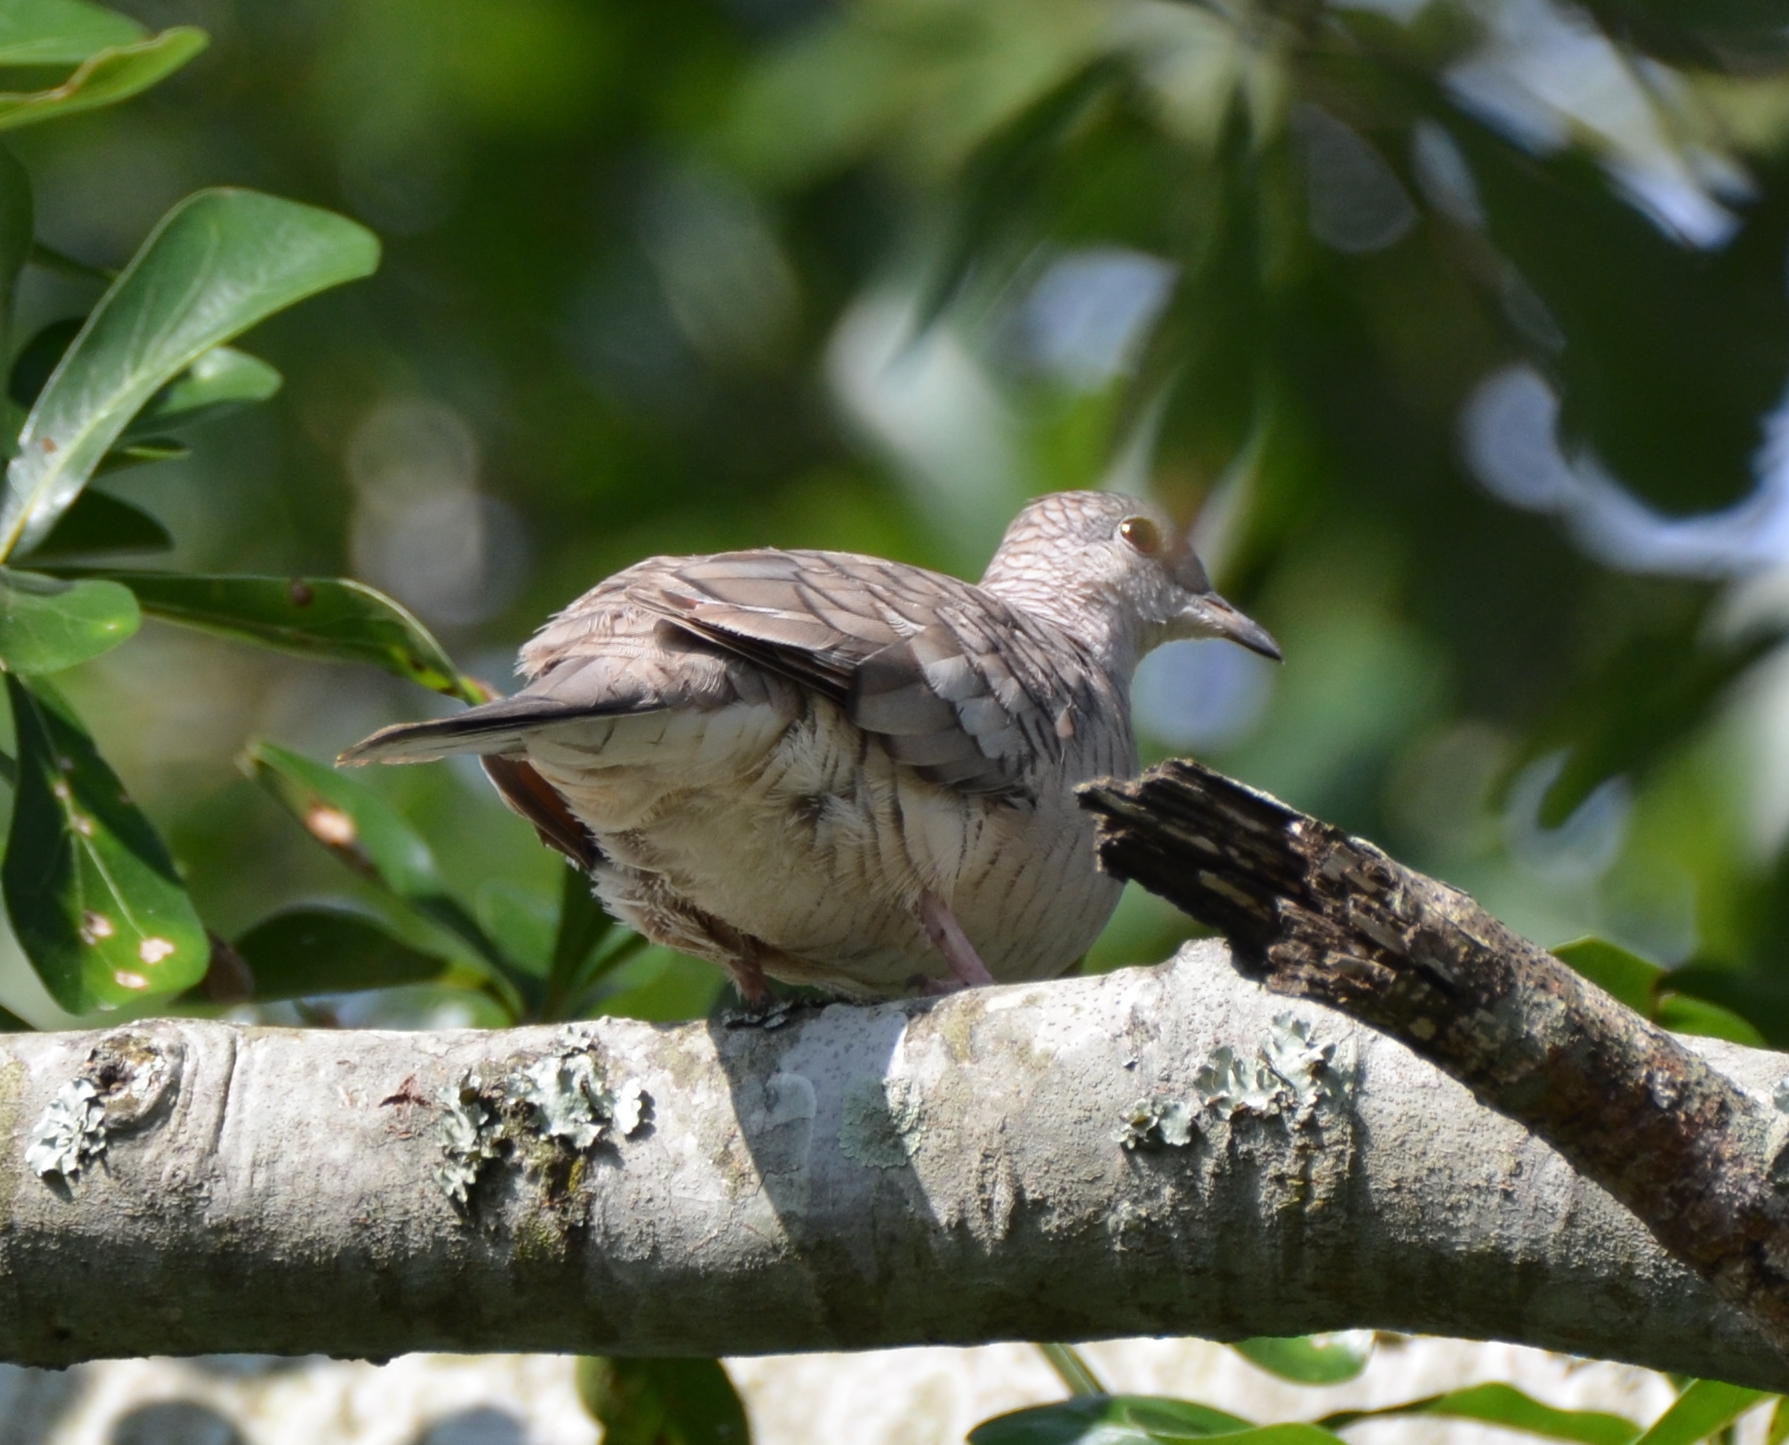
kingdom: Animalia
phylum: Chordata
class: Aves
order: Columbiformes
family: Columbidae
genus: Columbina
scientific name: Columbina inca
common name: Inca dove
